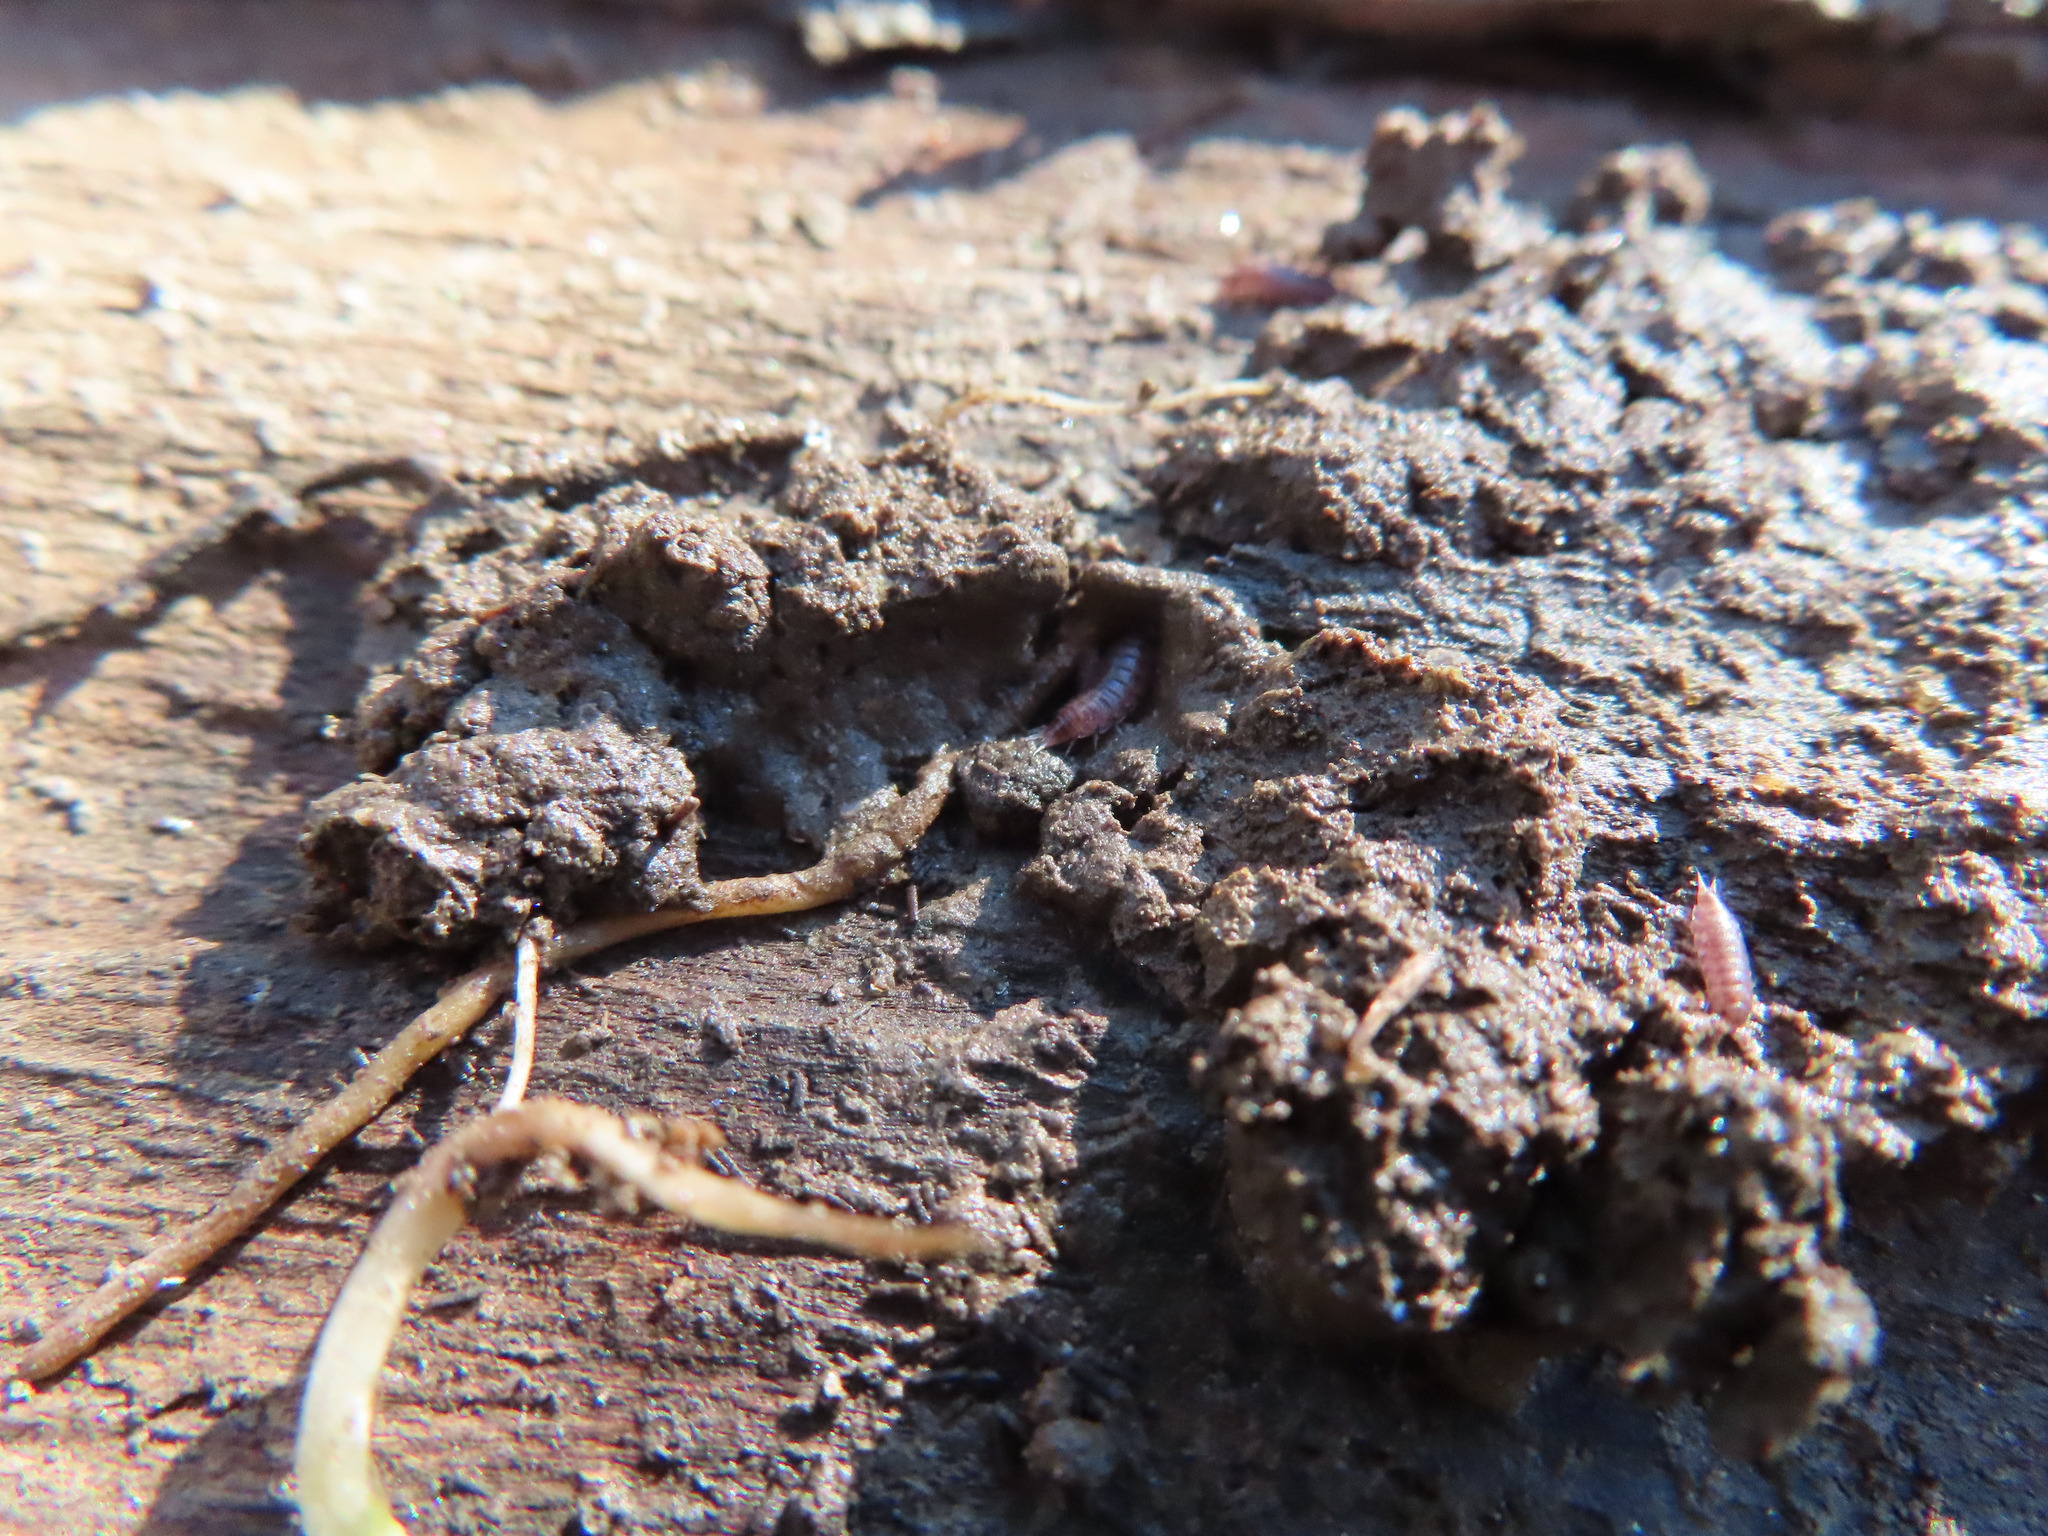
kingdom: Animalia
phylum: Arthropoda
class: Malacostraca
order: Isopoda
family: Trichoniscidae
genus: Hyloniscus
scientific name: Hyloniscus riparius
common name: Isopod
